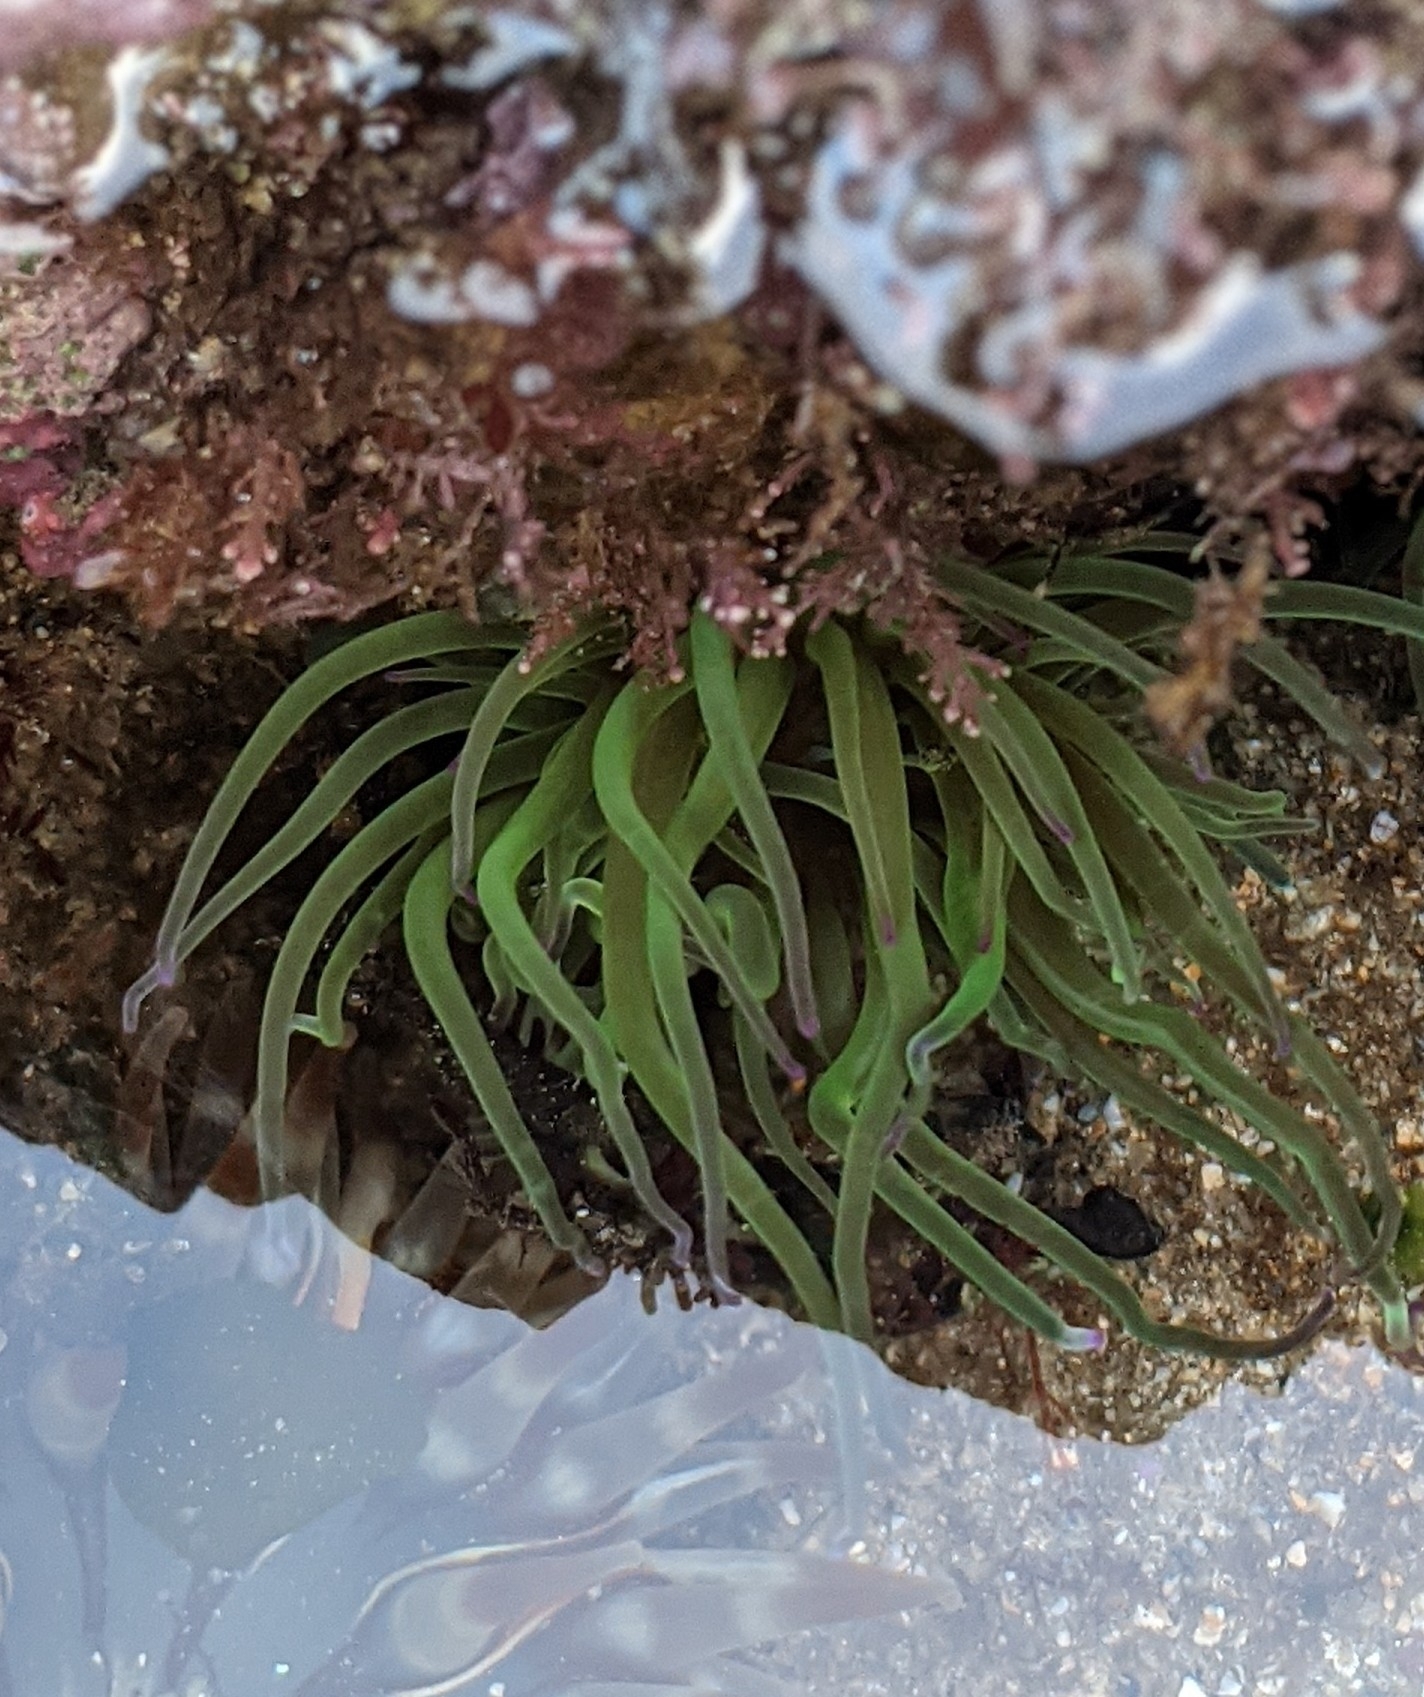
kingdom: Animalia
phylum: Cnidaria
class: Anthozoa
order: Actiniaria
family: Actiniidae
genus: Anemonia
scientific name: Anemonia viridis
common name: Snakelocks anemone
